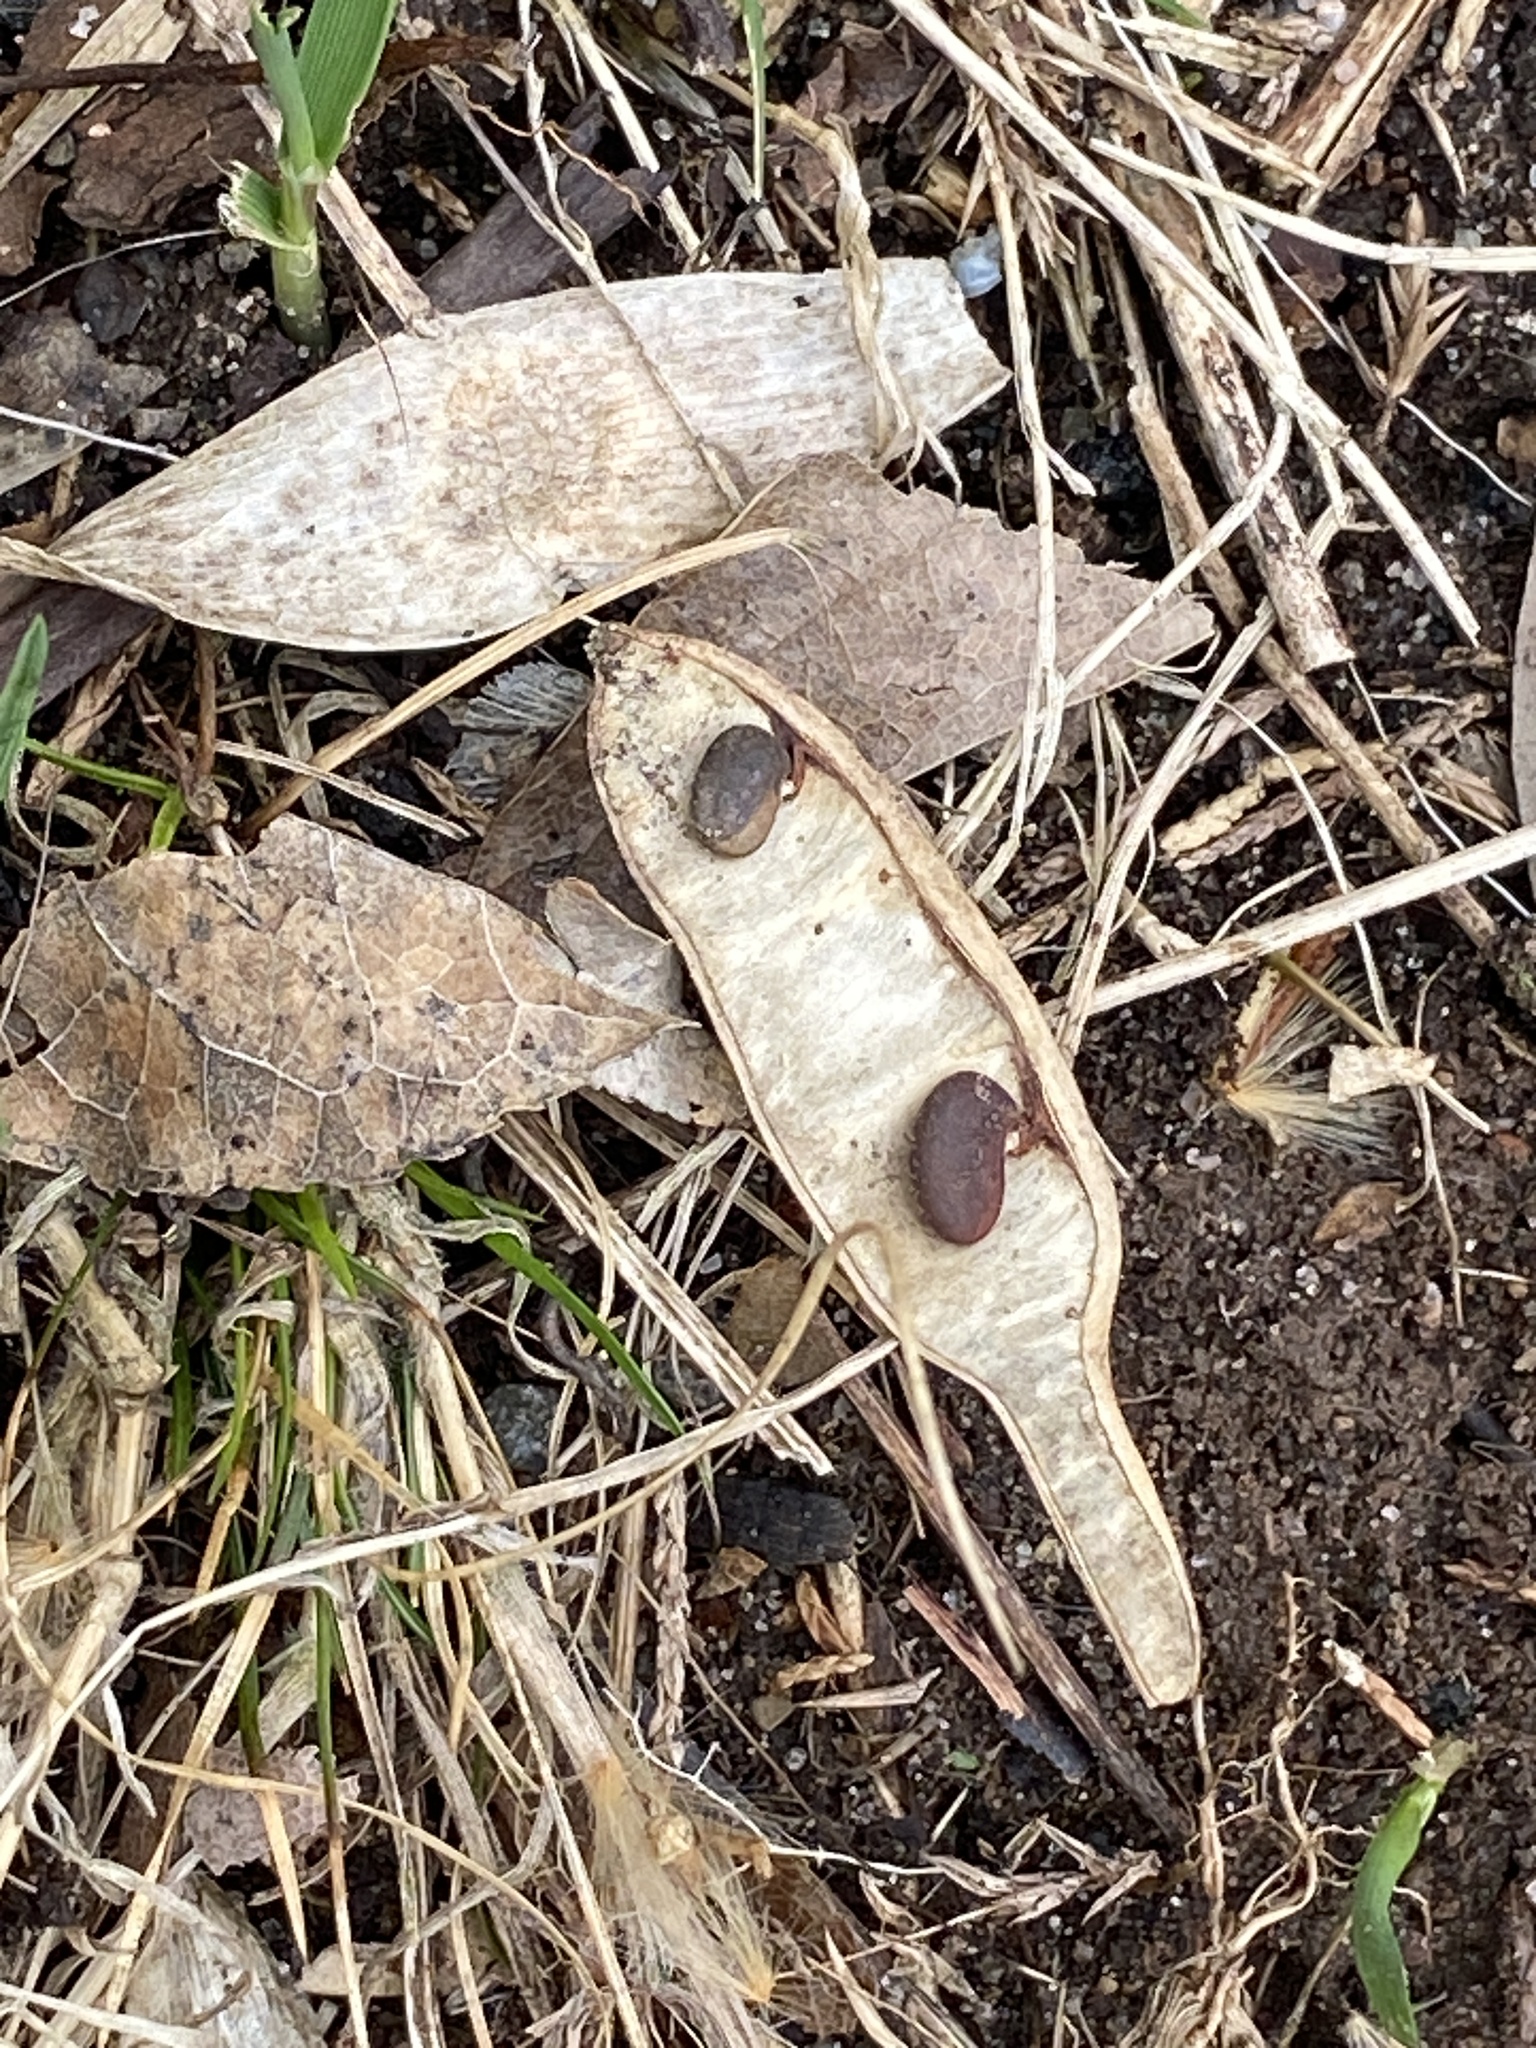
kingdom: Plantae
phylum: Tracheophyta
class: Magnoliopsida
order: Fabales
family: Fabaceae
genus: Robinia
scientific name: Robinia pseudoacacia
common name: Black locust
